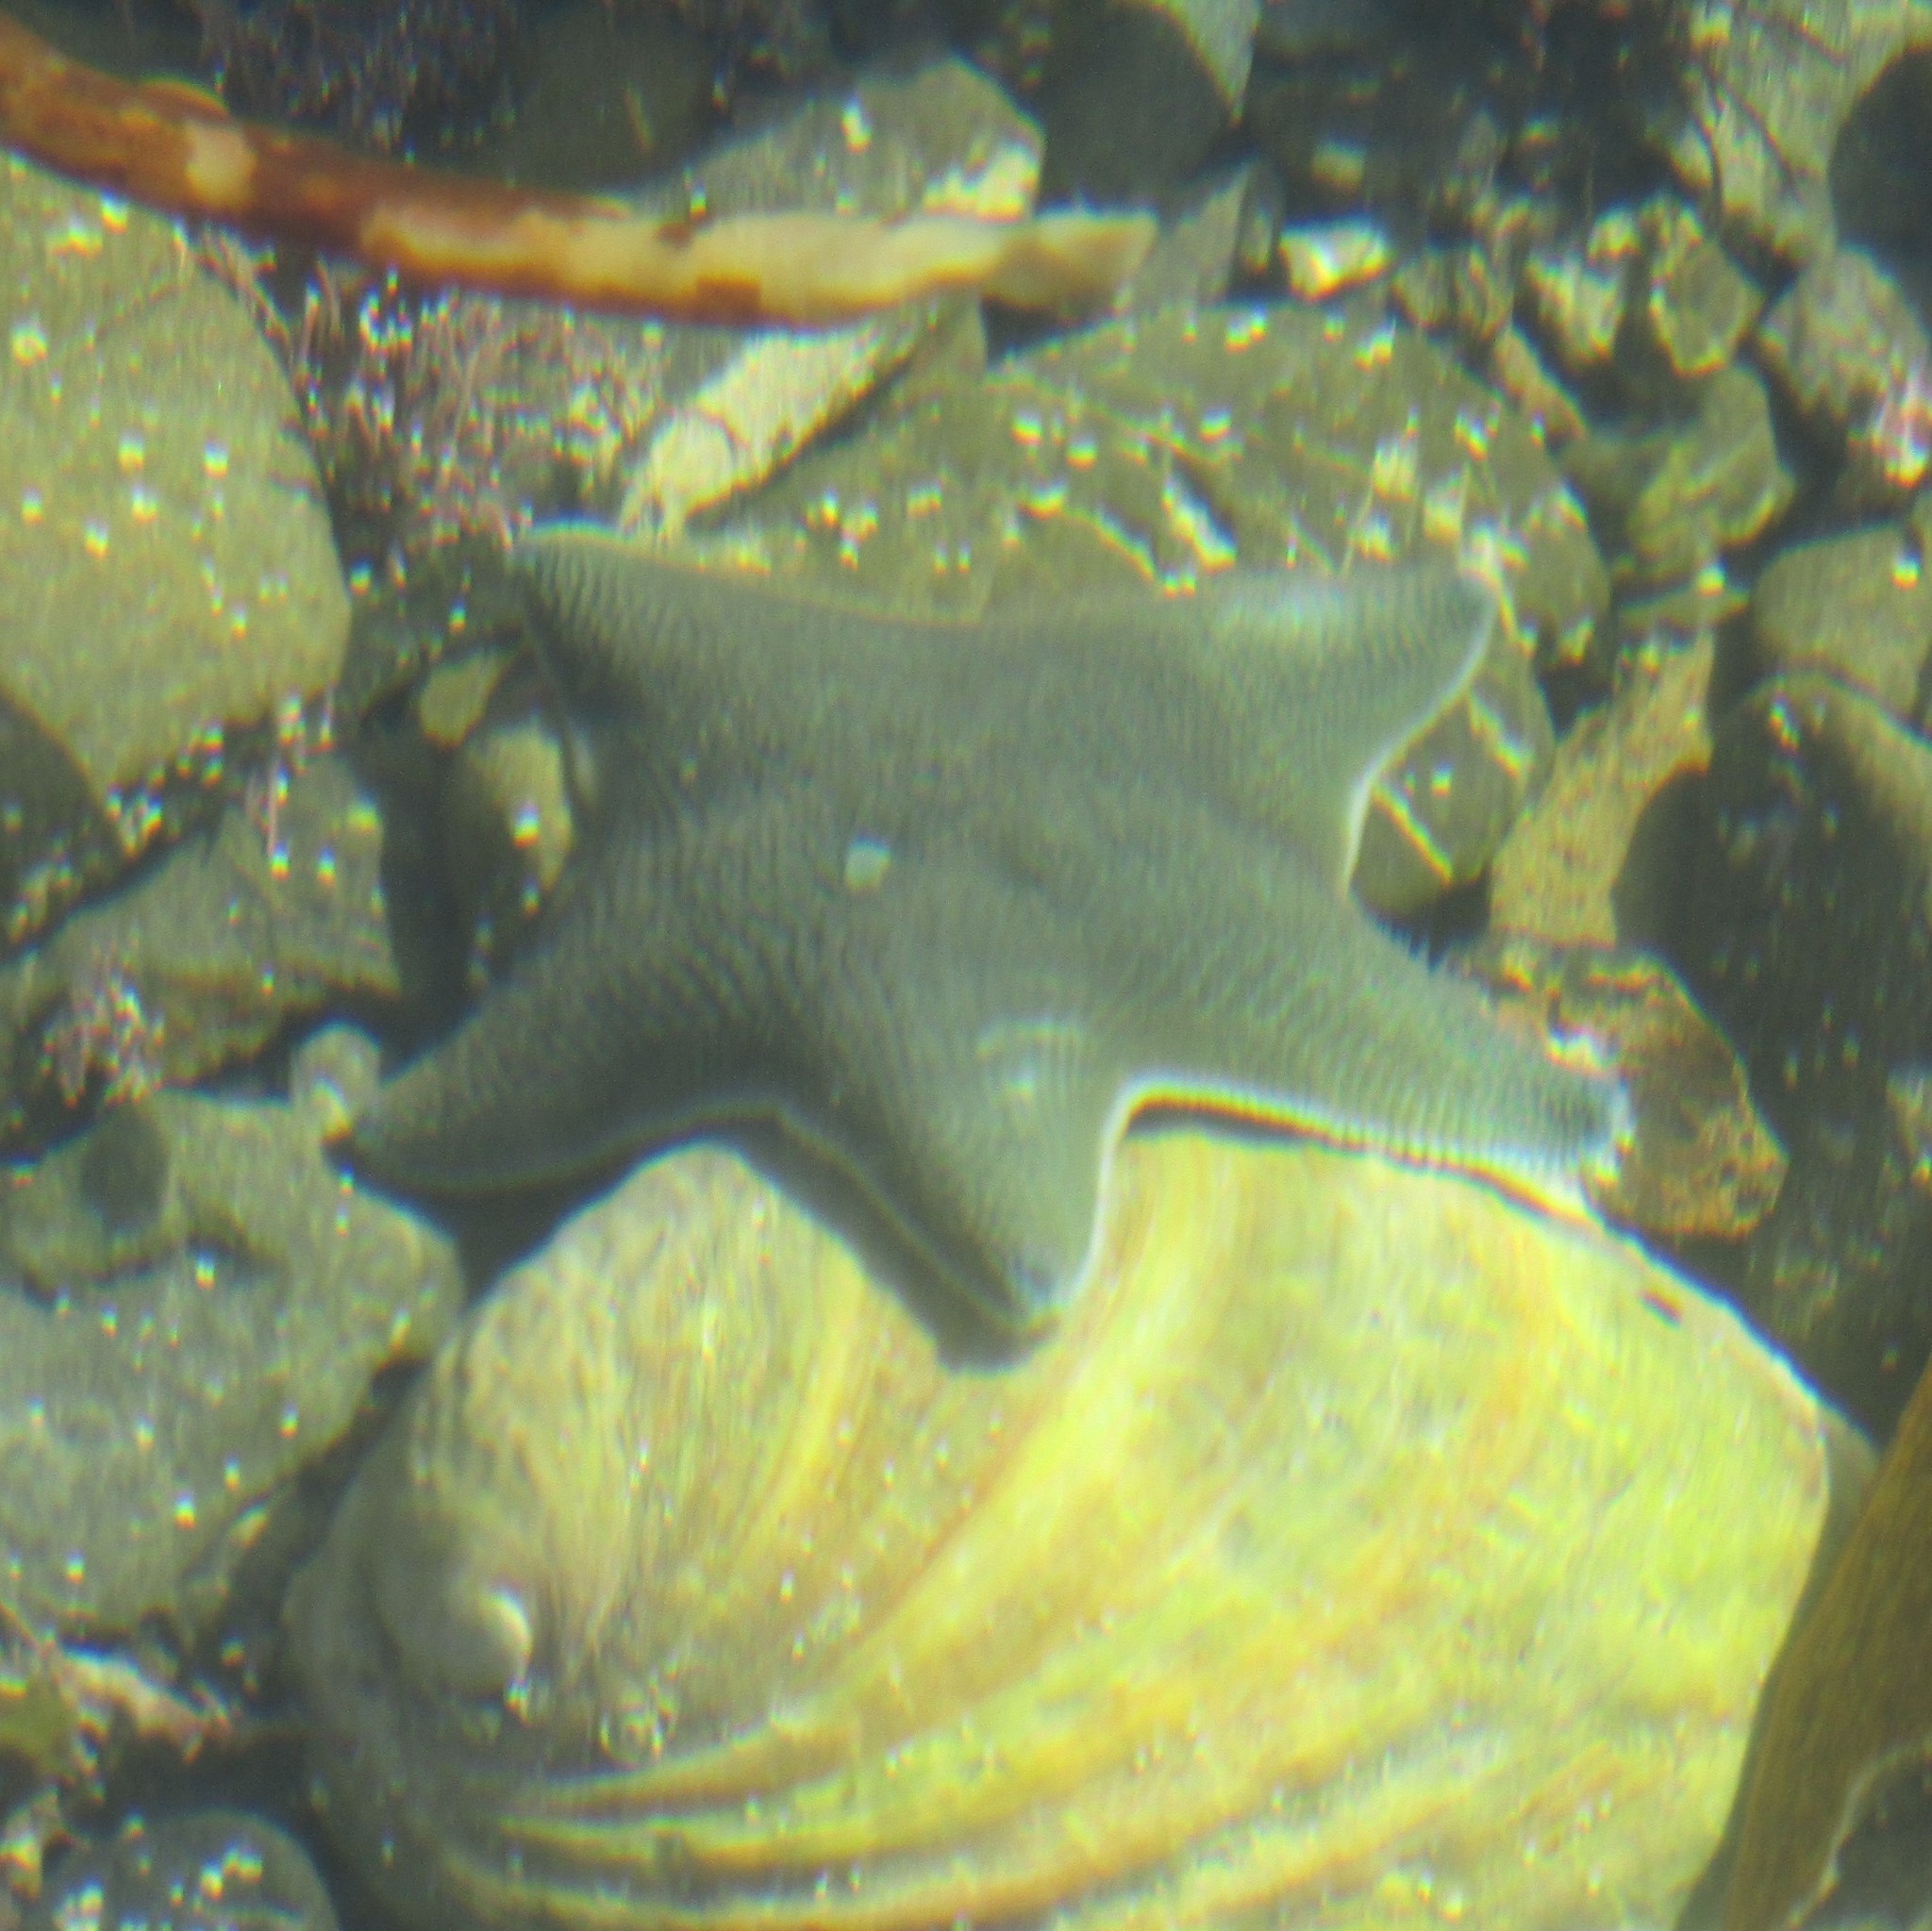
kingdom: Animalia
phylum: Echinodermata
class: Asteroidea
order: Valvatida
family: Asterinidae
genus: Patiriella
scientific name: Patiriella regularis
